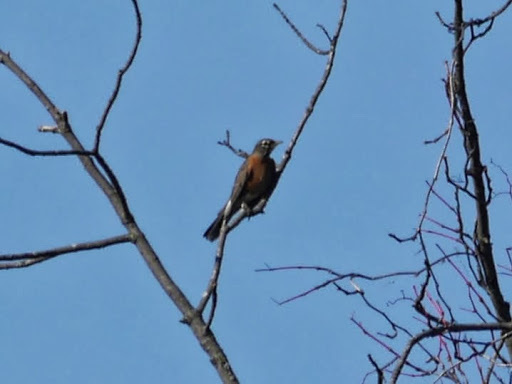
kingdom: Animalia
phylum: Chordata
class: Aves
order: Passeriformes
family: Turdidae
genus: Turdus
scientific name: Turdus migratorius
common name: American robin
